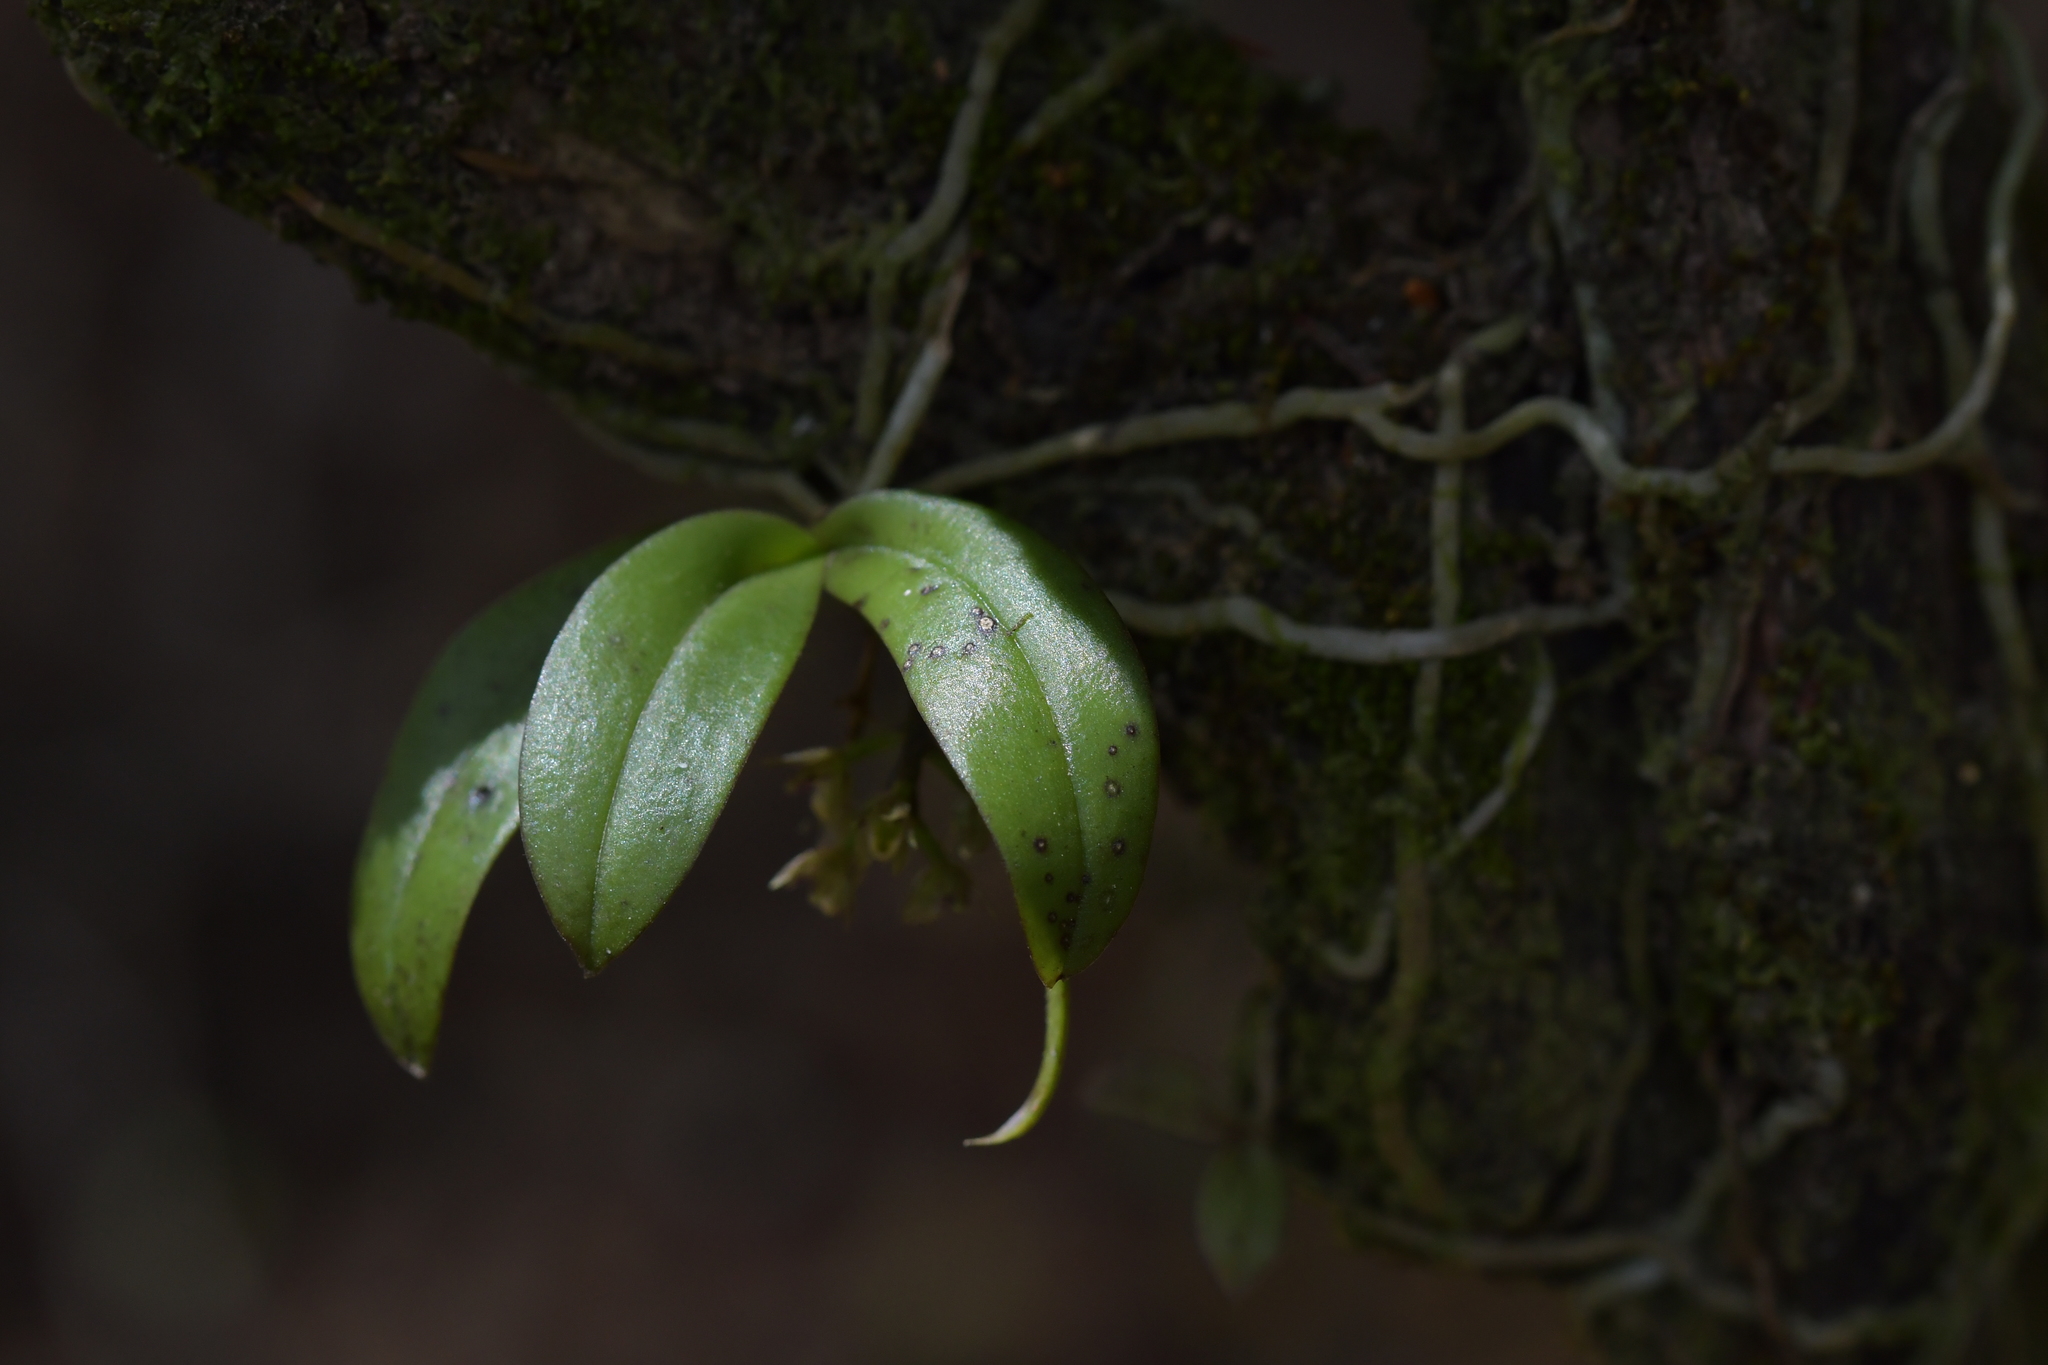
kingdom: Plantae
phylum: Tracheophyta
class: Liliopsida
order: Asparagales
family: Orchidaceae
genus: Drymoanthus
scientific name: Drymoanthus adversus
